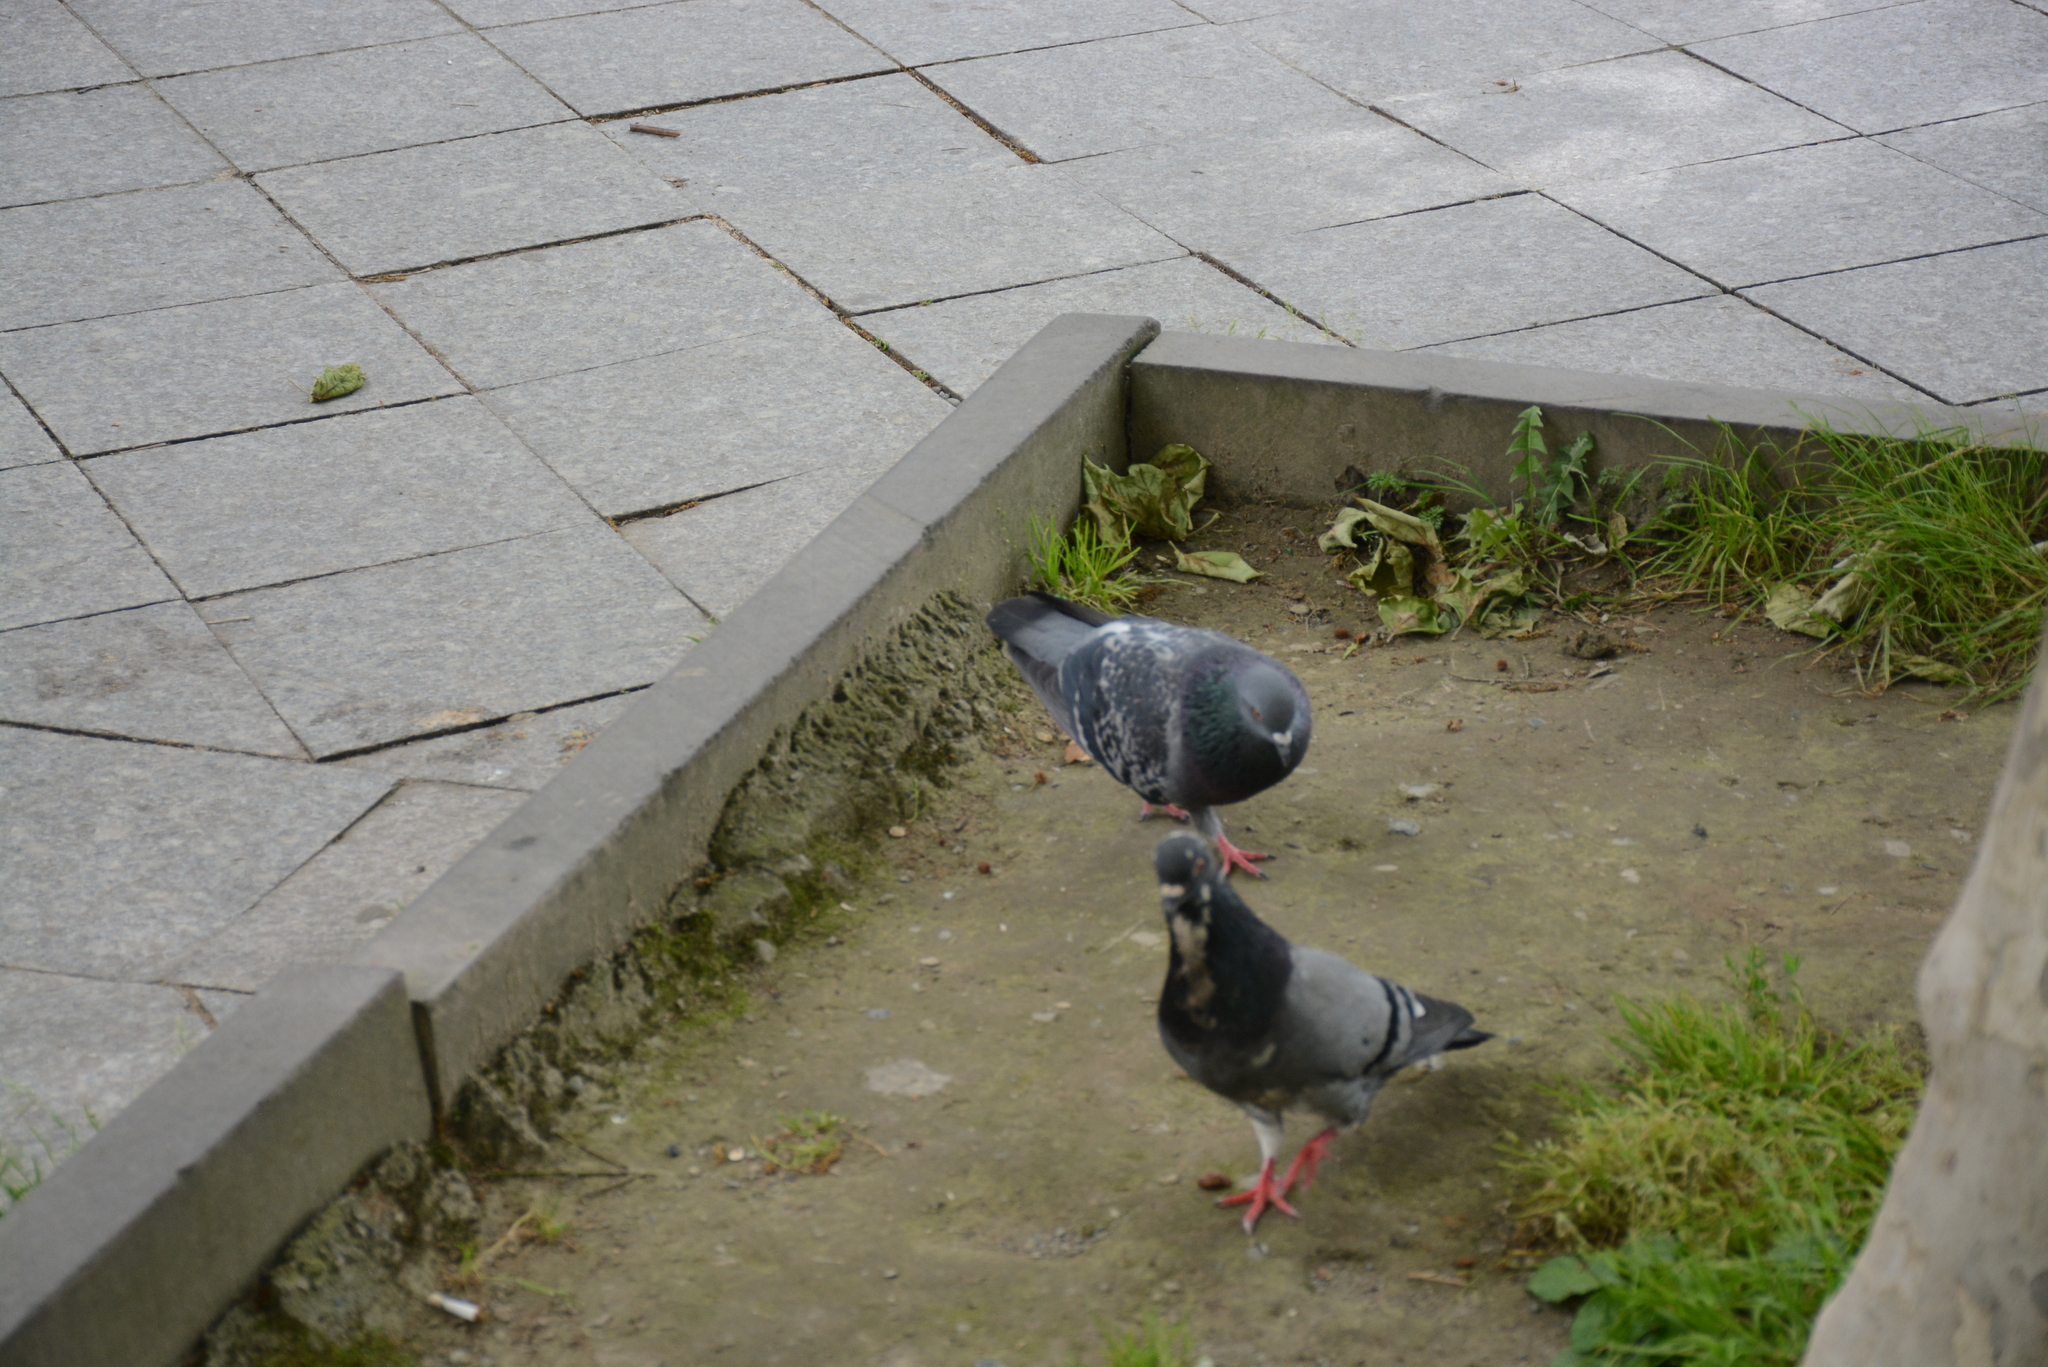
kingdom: Animalia
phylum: Chordata
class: Aves
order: Columbiformes
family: Columbidae
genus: Columba
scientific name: Columba livia
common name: Rock pigeon
